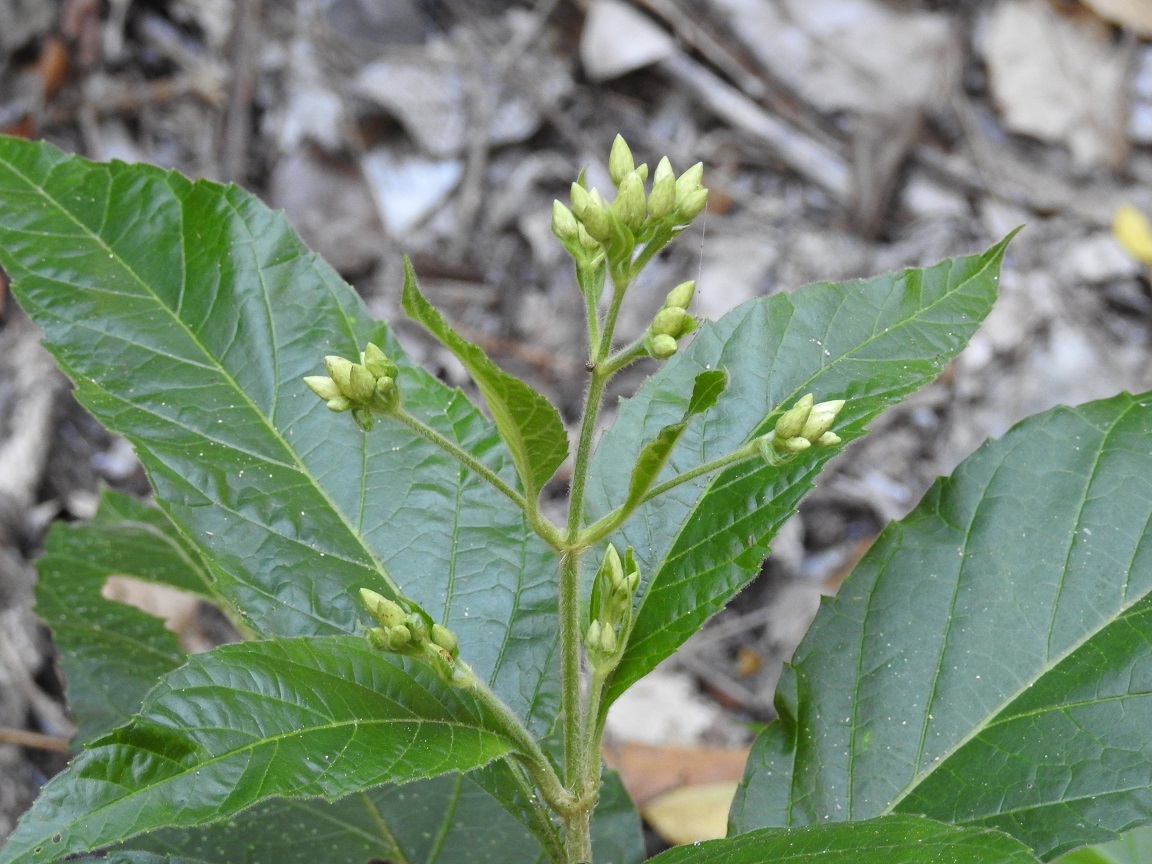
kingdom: Plantae
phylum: Tracheophyta
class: Magnoliopsida
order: Asterales
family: Asteraceae
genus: Chromolaena
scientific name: Chromolaena quercetorum
